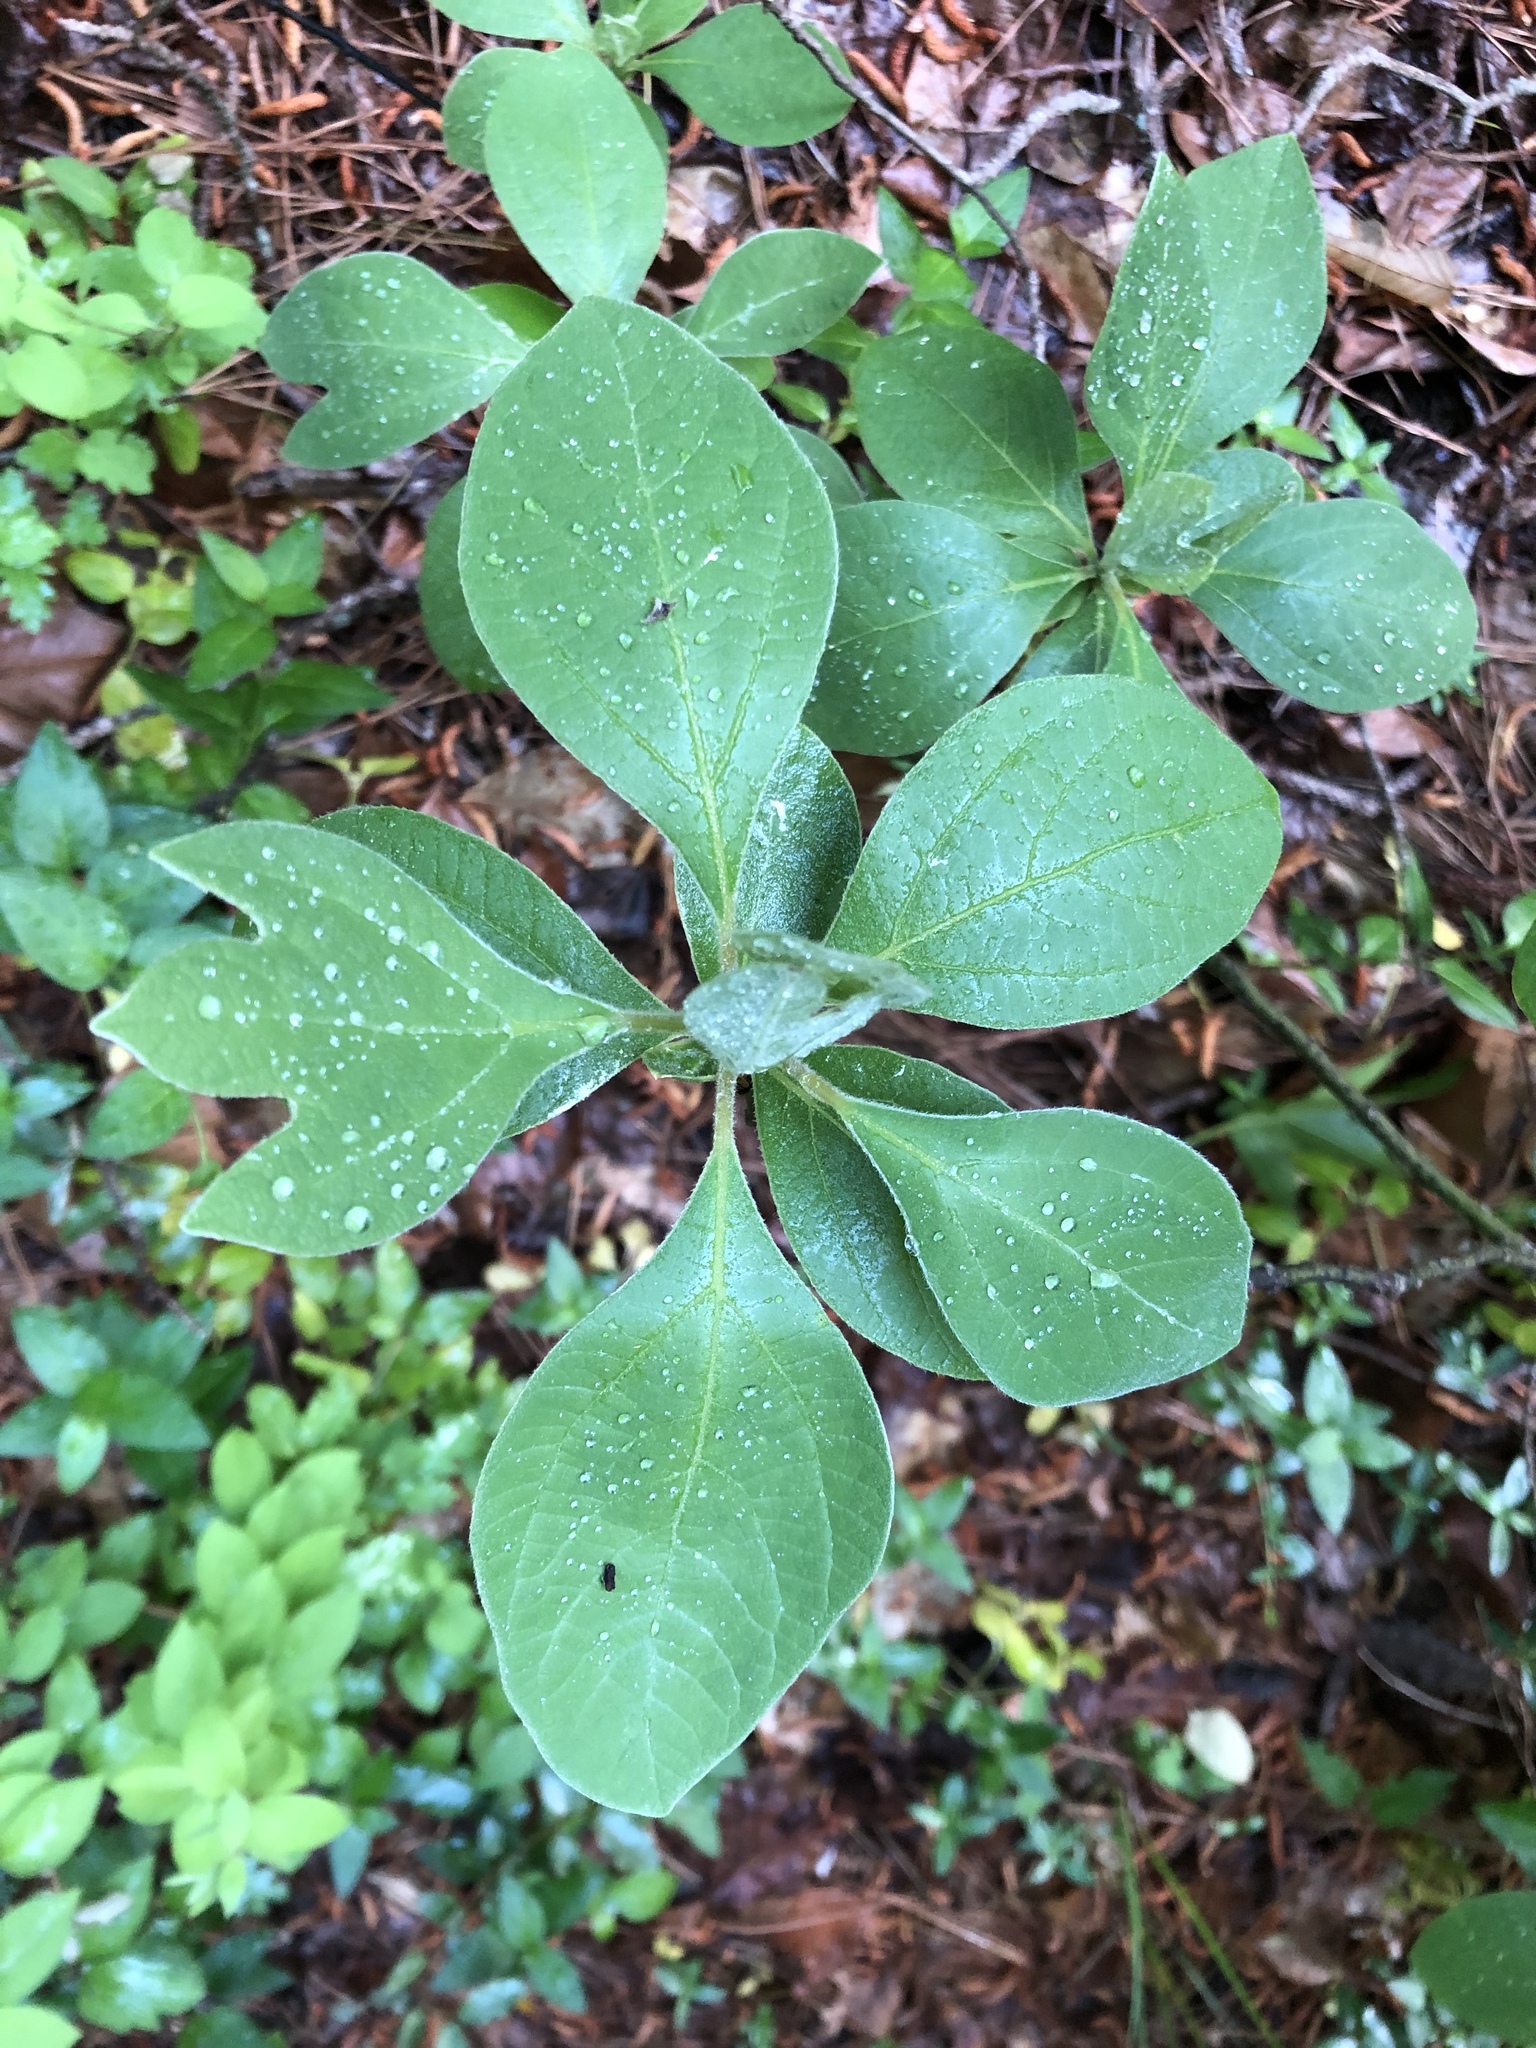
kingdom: Plantae
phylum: Tracheophyta
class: Magnoliopsida
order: Laurales
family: Lauraceae
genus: Sassafras
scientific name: Sassafras albidum
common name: Sassafras
